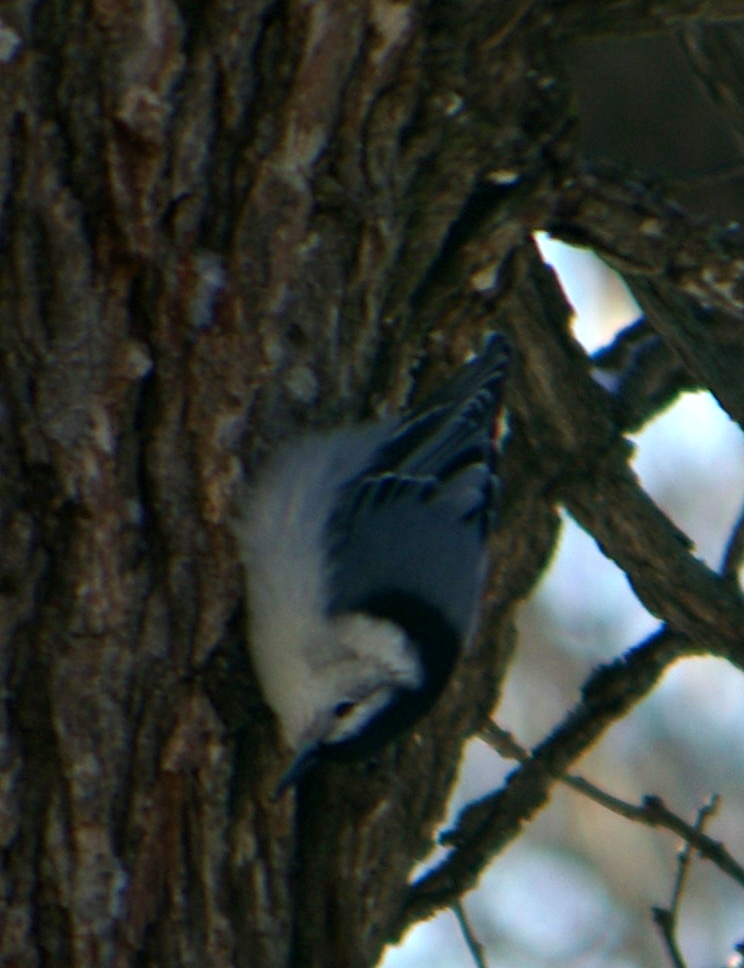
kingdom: Animalia
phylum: Chordata
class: Aves
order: Passeriformes
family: Sittidae
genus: Sitta
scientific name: Sitta carolinensis
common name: White-breasted nuthatch
